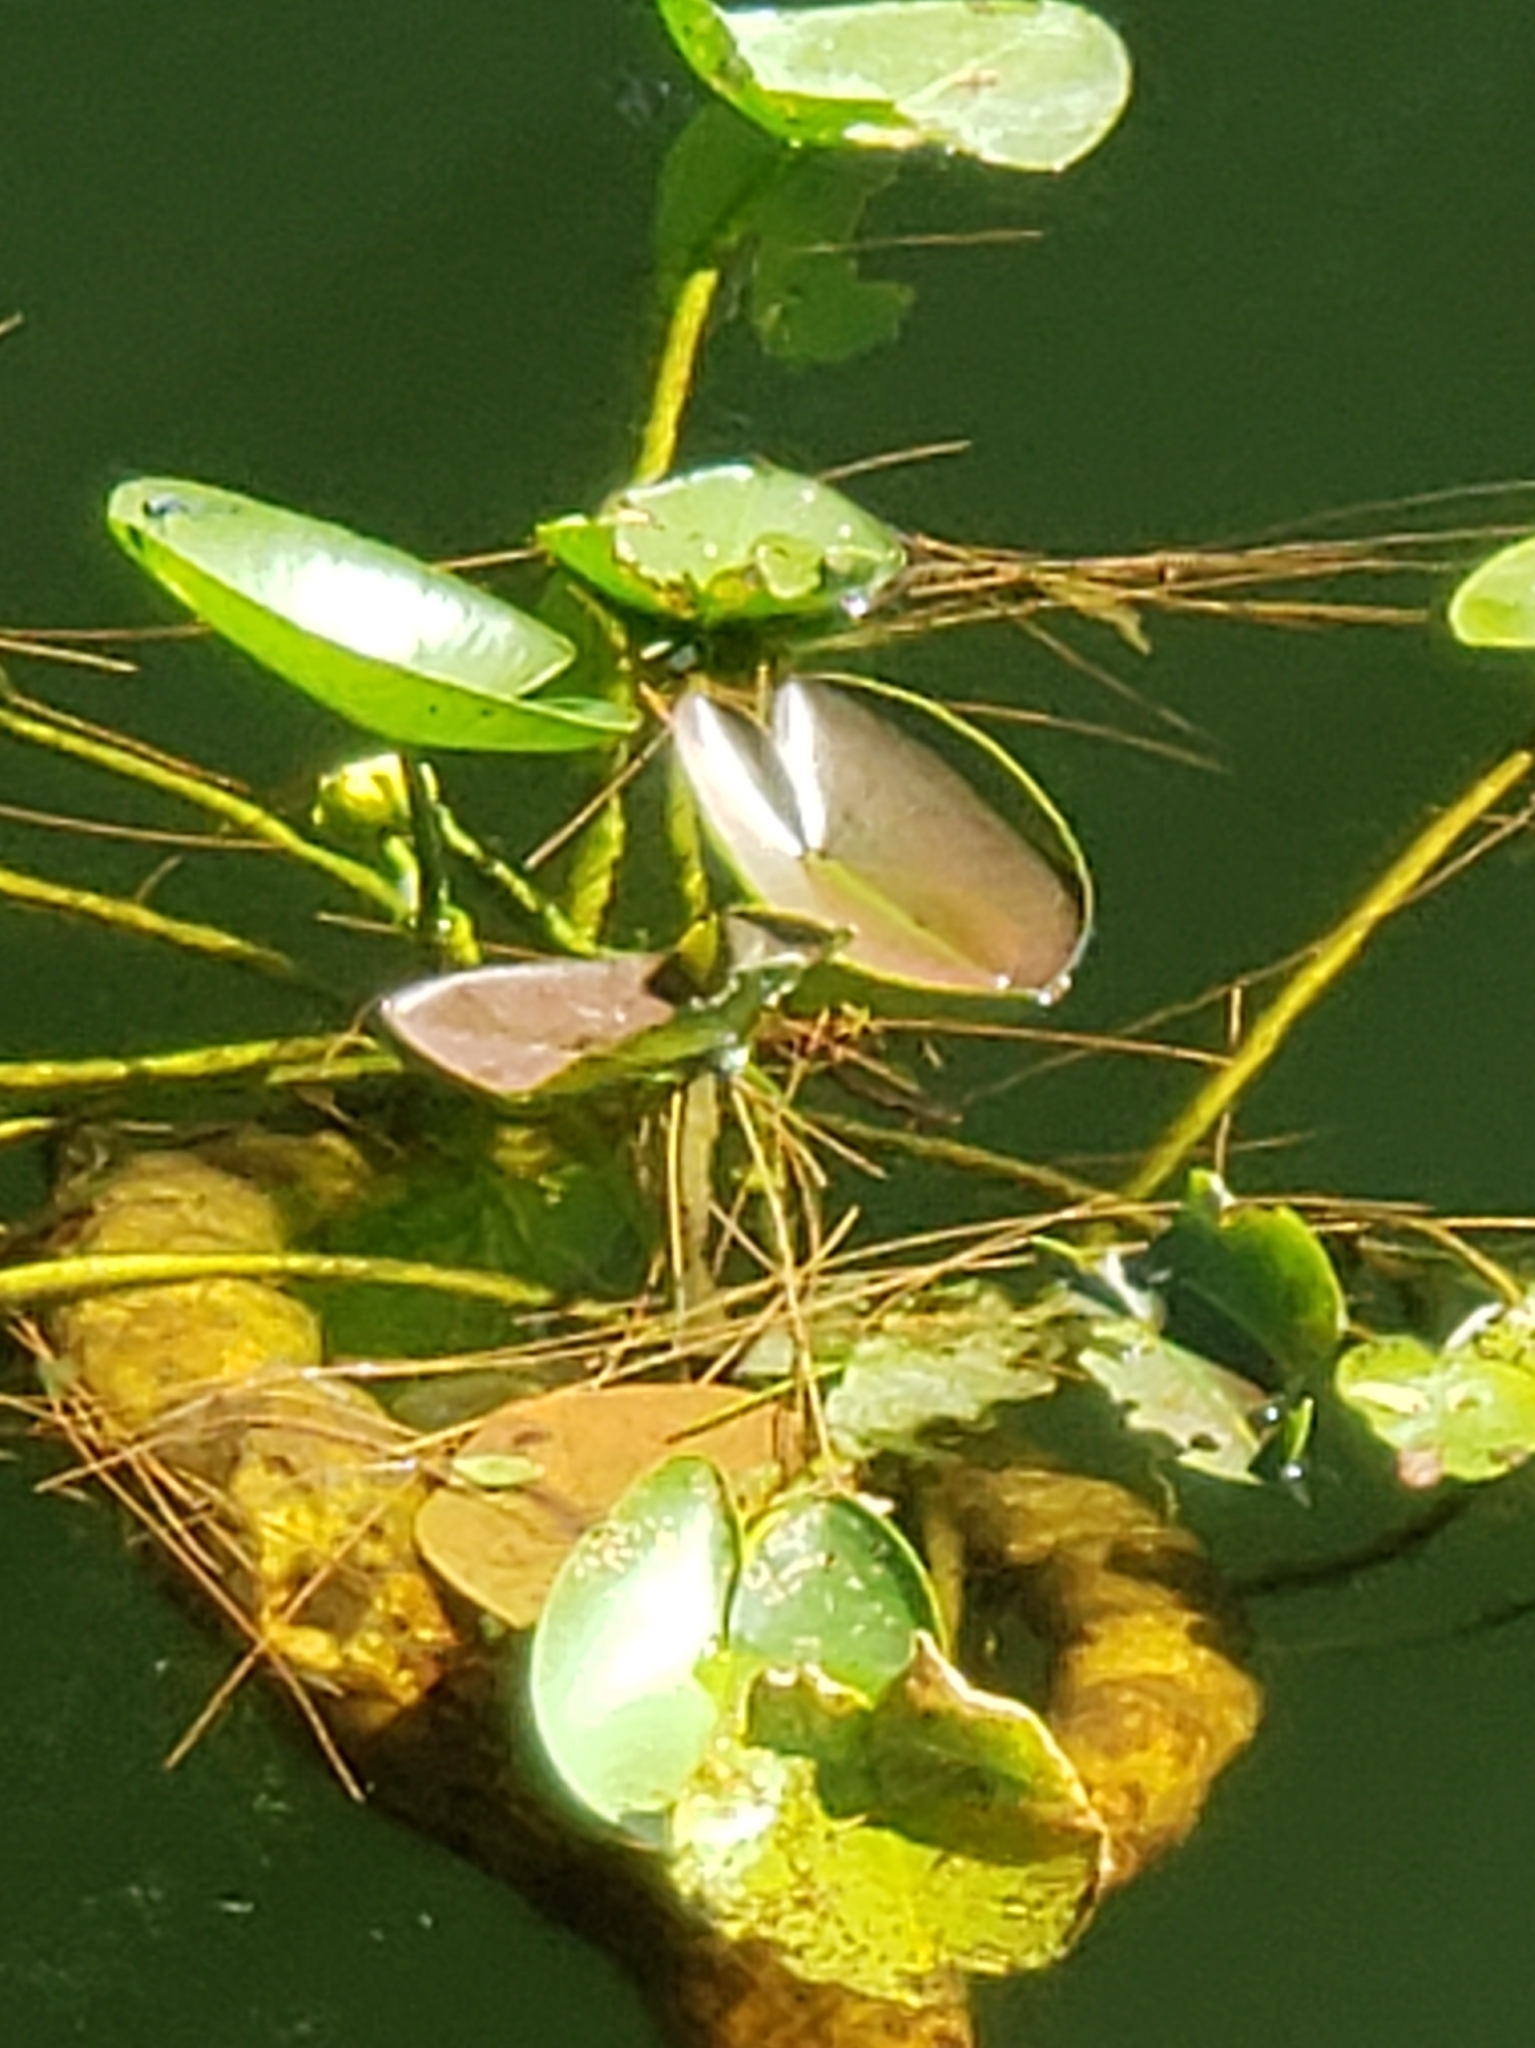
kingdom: Plantae
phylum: Tracheophyta
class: Magnoliopsida
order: Nymphaeales
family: Nymphaeaceae
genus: Nuphar
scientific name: Nuphar advena
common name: Spatter-dock
